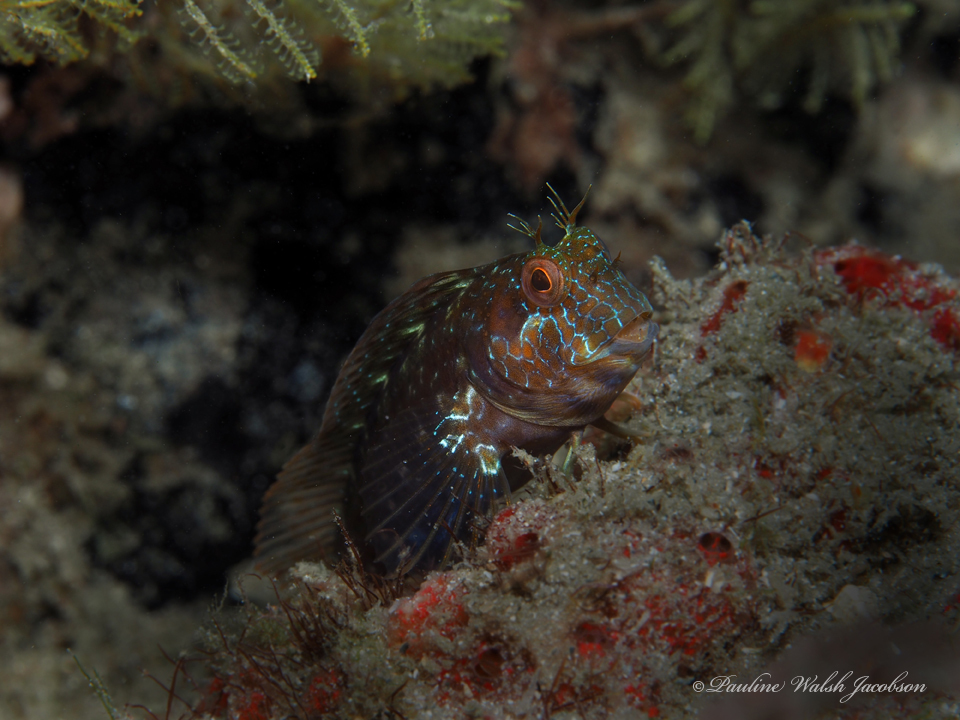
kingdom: Animalia
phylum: Chordata
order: Perciformes
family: Blenniidae
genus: Parablennius
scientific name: Parablennius marmoreus
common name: Seaweed blenny
